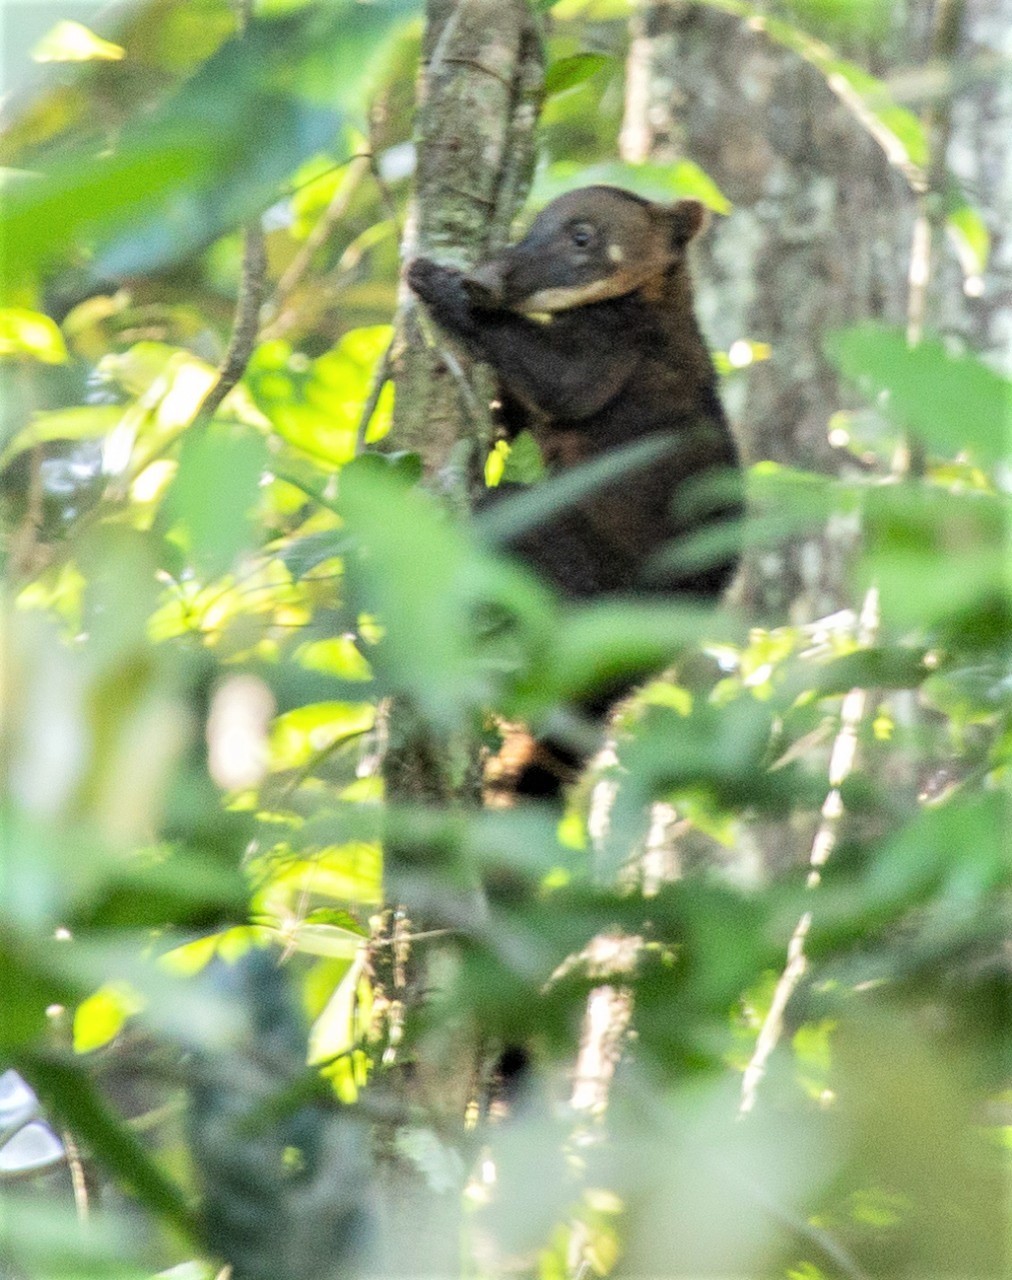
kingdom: Animalia
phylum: Chordata
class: Mammalia
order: Carnivora
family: Procyonidae
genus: Nasua
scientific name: Nasua nasua
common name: South american coati
